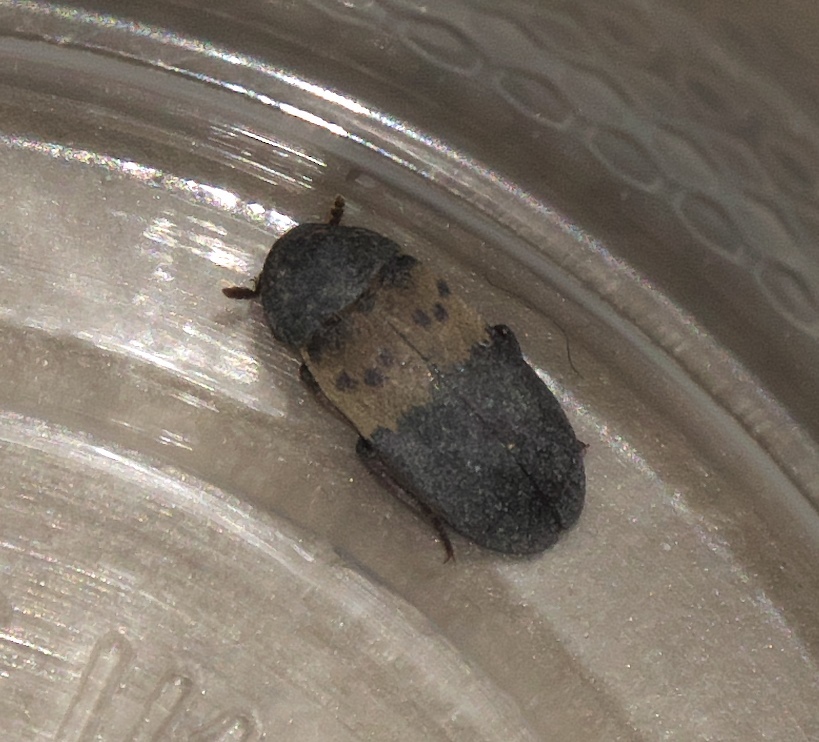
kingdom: Animalia
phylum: Arthropoda
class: Insecta
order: Coleoptera
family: Dermestidae
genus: Dermestes
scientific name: Dermestes lardarius
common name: Larder beetle
